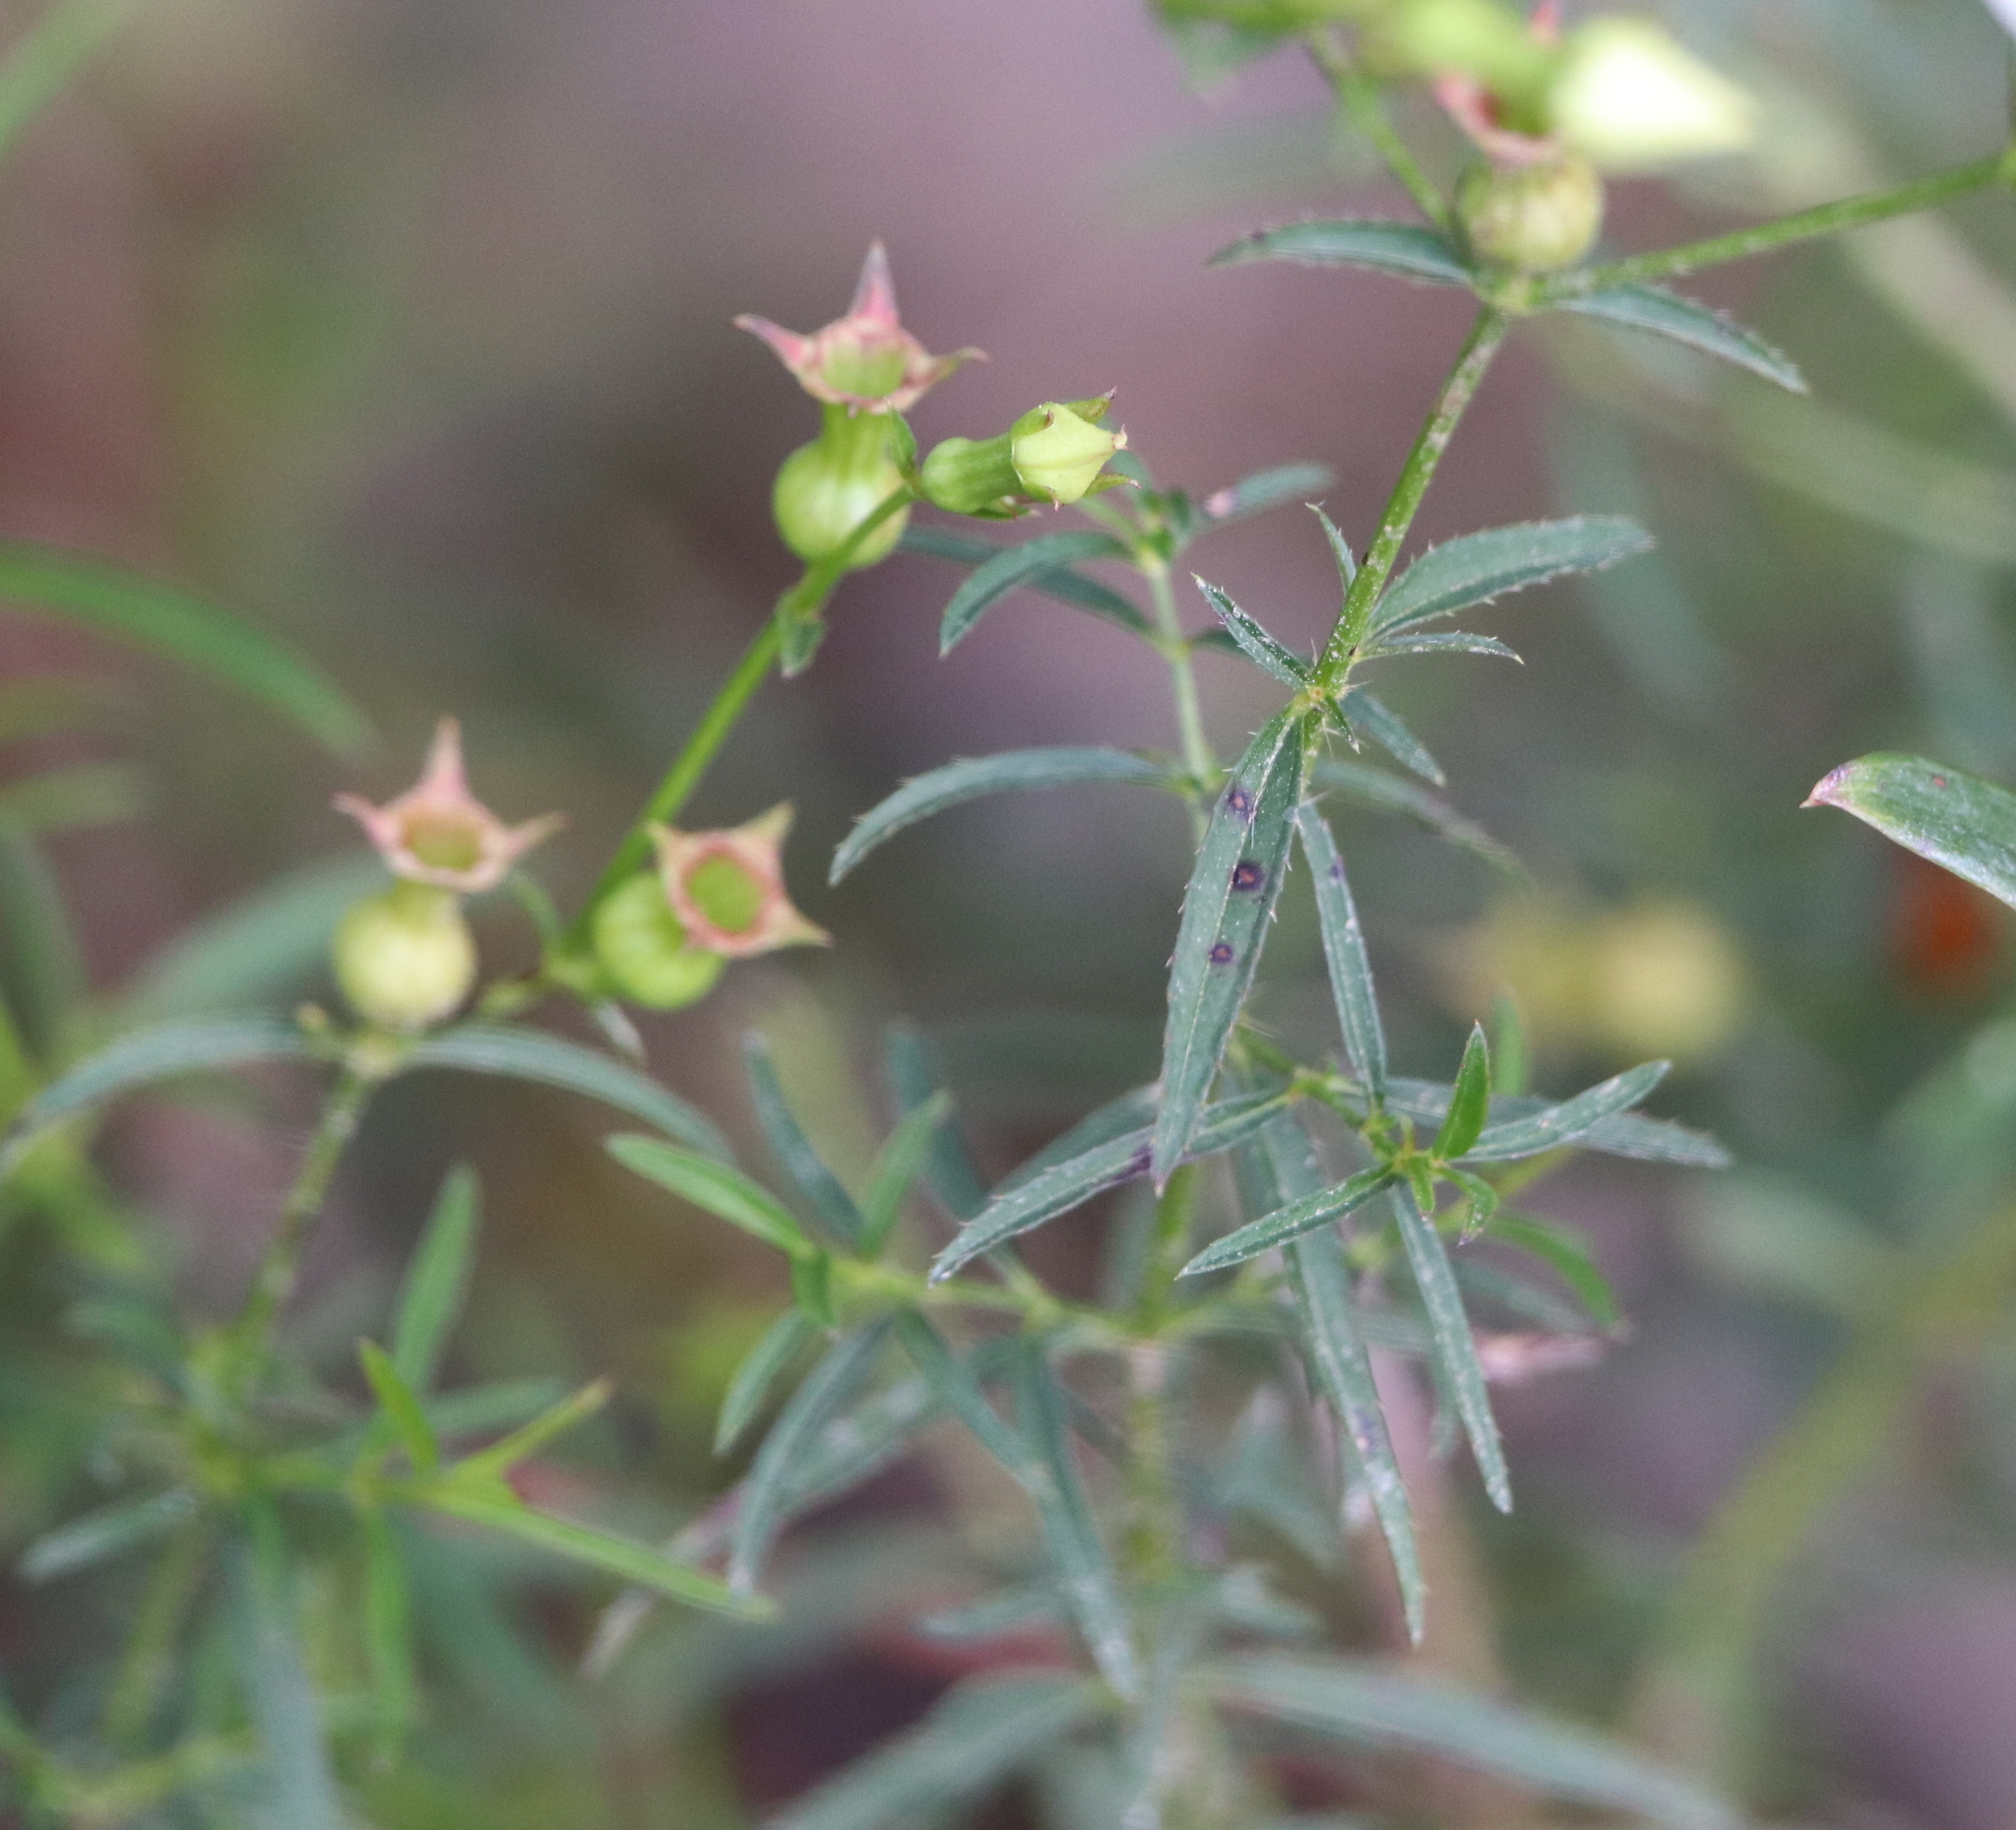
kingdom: Plantae
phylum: Tracheophyta
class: Magnoliopsida
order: Myrtales
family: Melastomataceae
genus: Rhexia
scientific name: Rhexia mariana
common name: Dull meadow-pitcher
